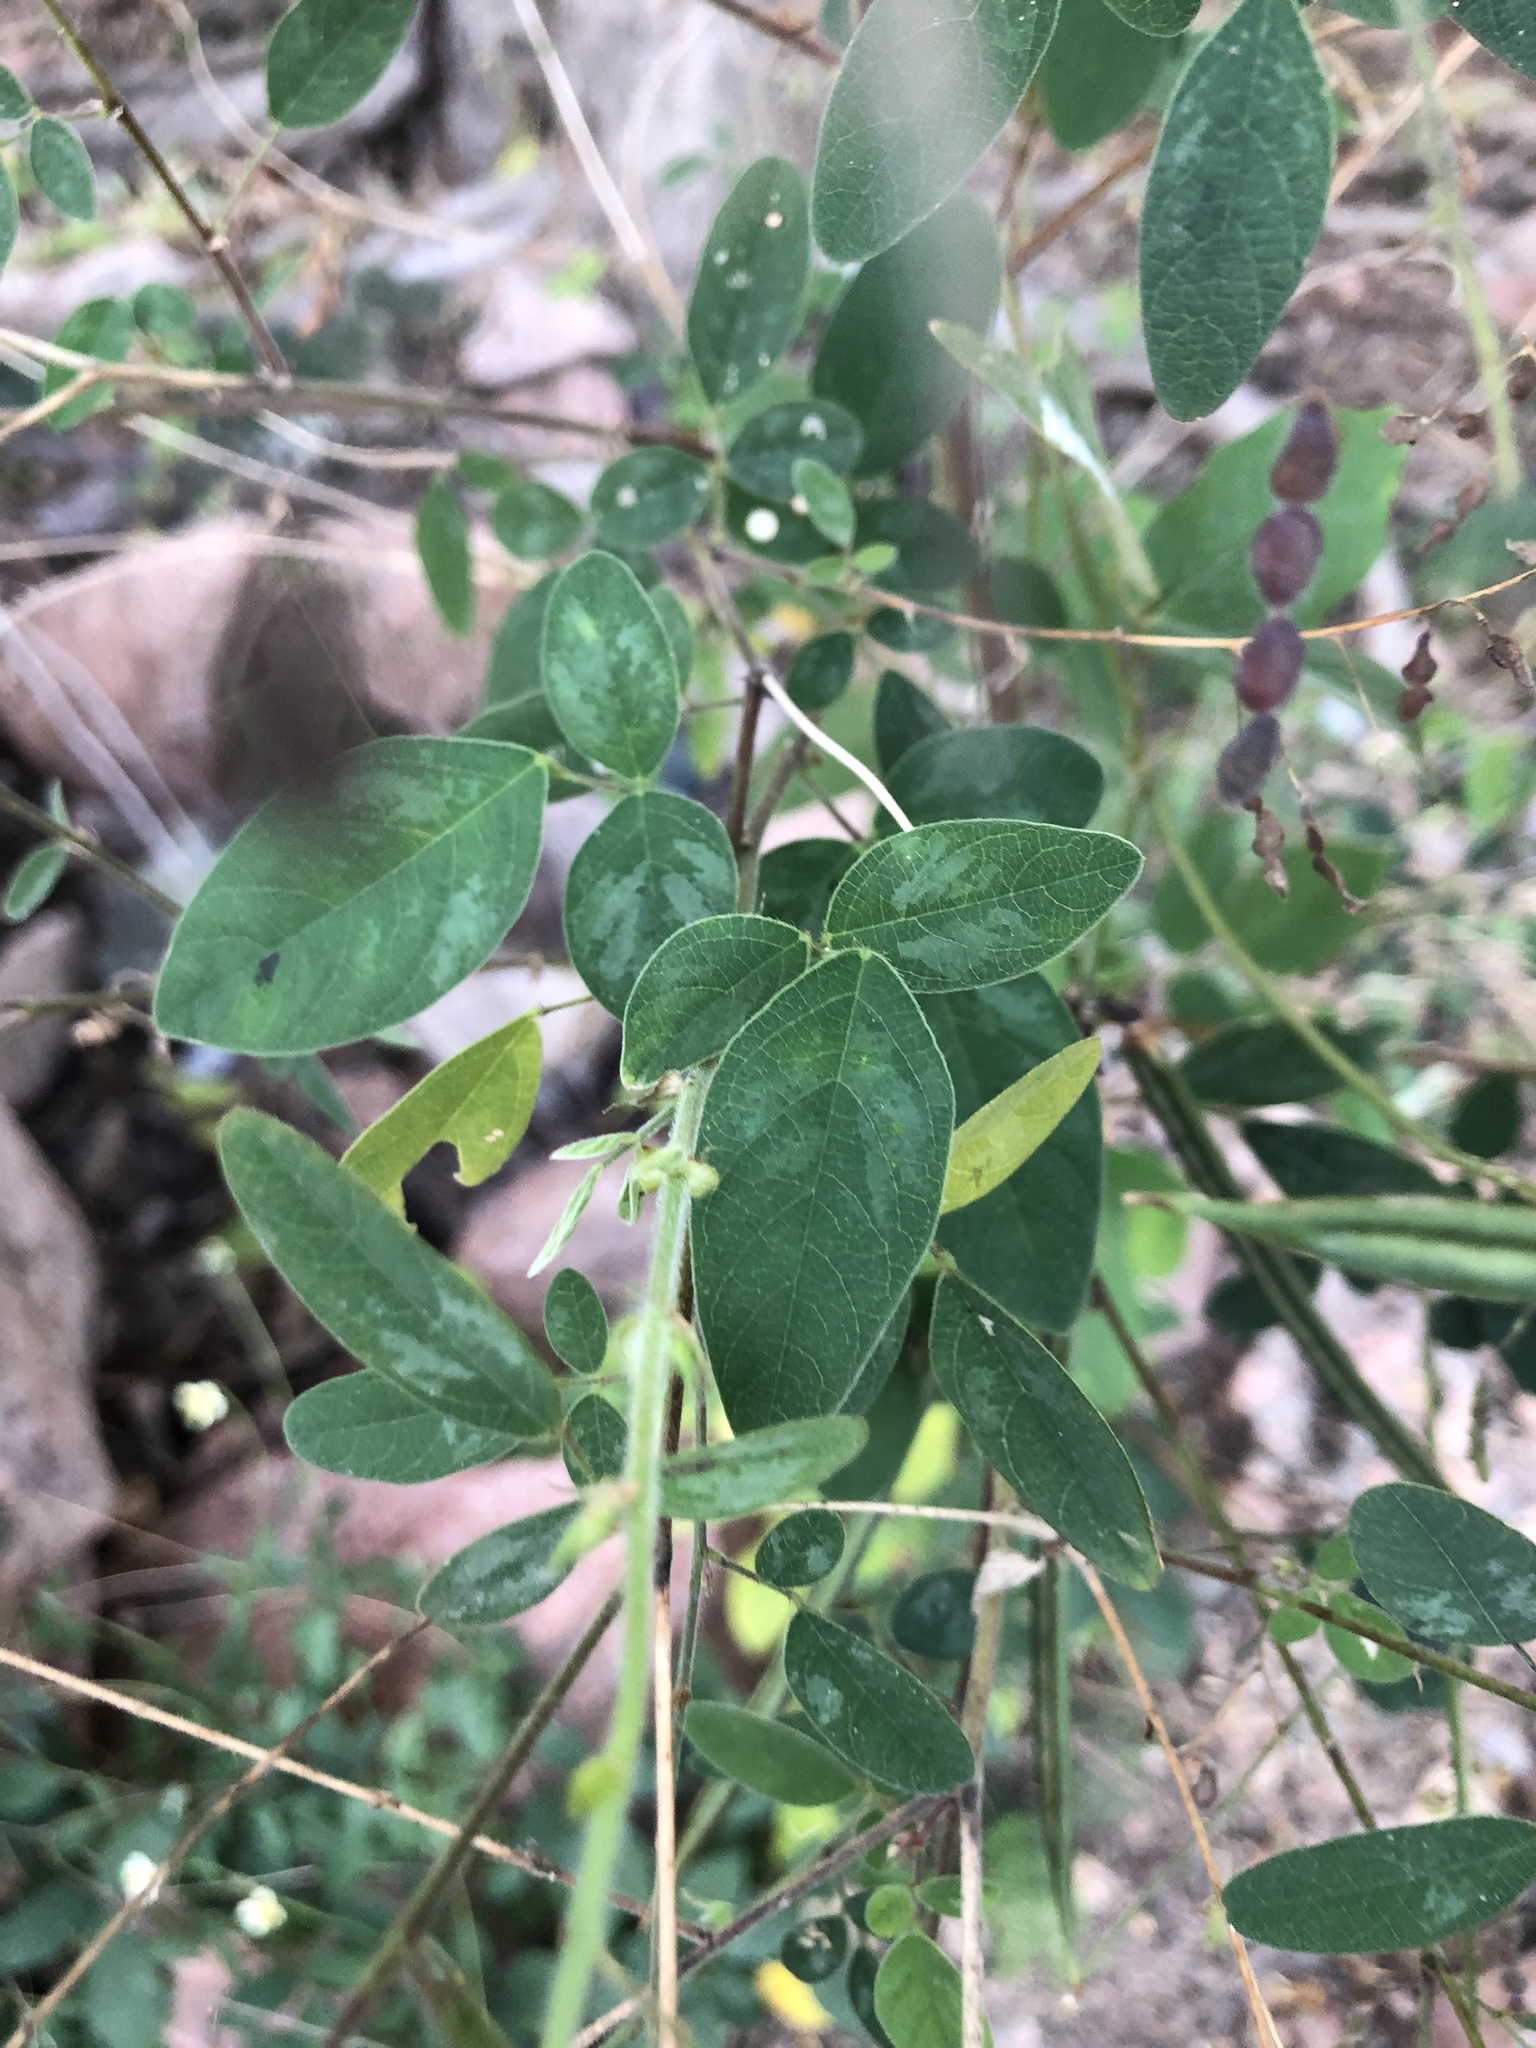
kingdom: Plantae
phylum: Tracheophyta
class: Magnoliopsida
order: Fabales
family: Fabaceae
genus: Desmodium
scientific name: Desmodium tortuosum
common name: Dixie ticktrefoil
